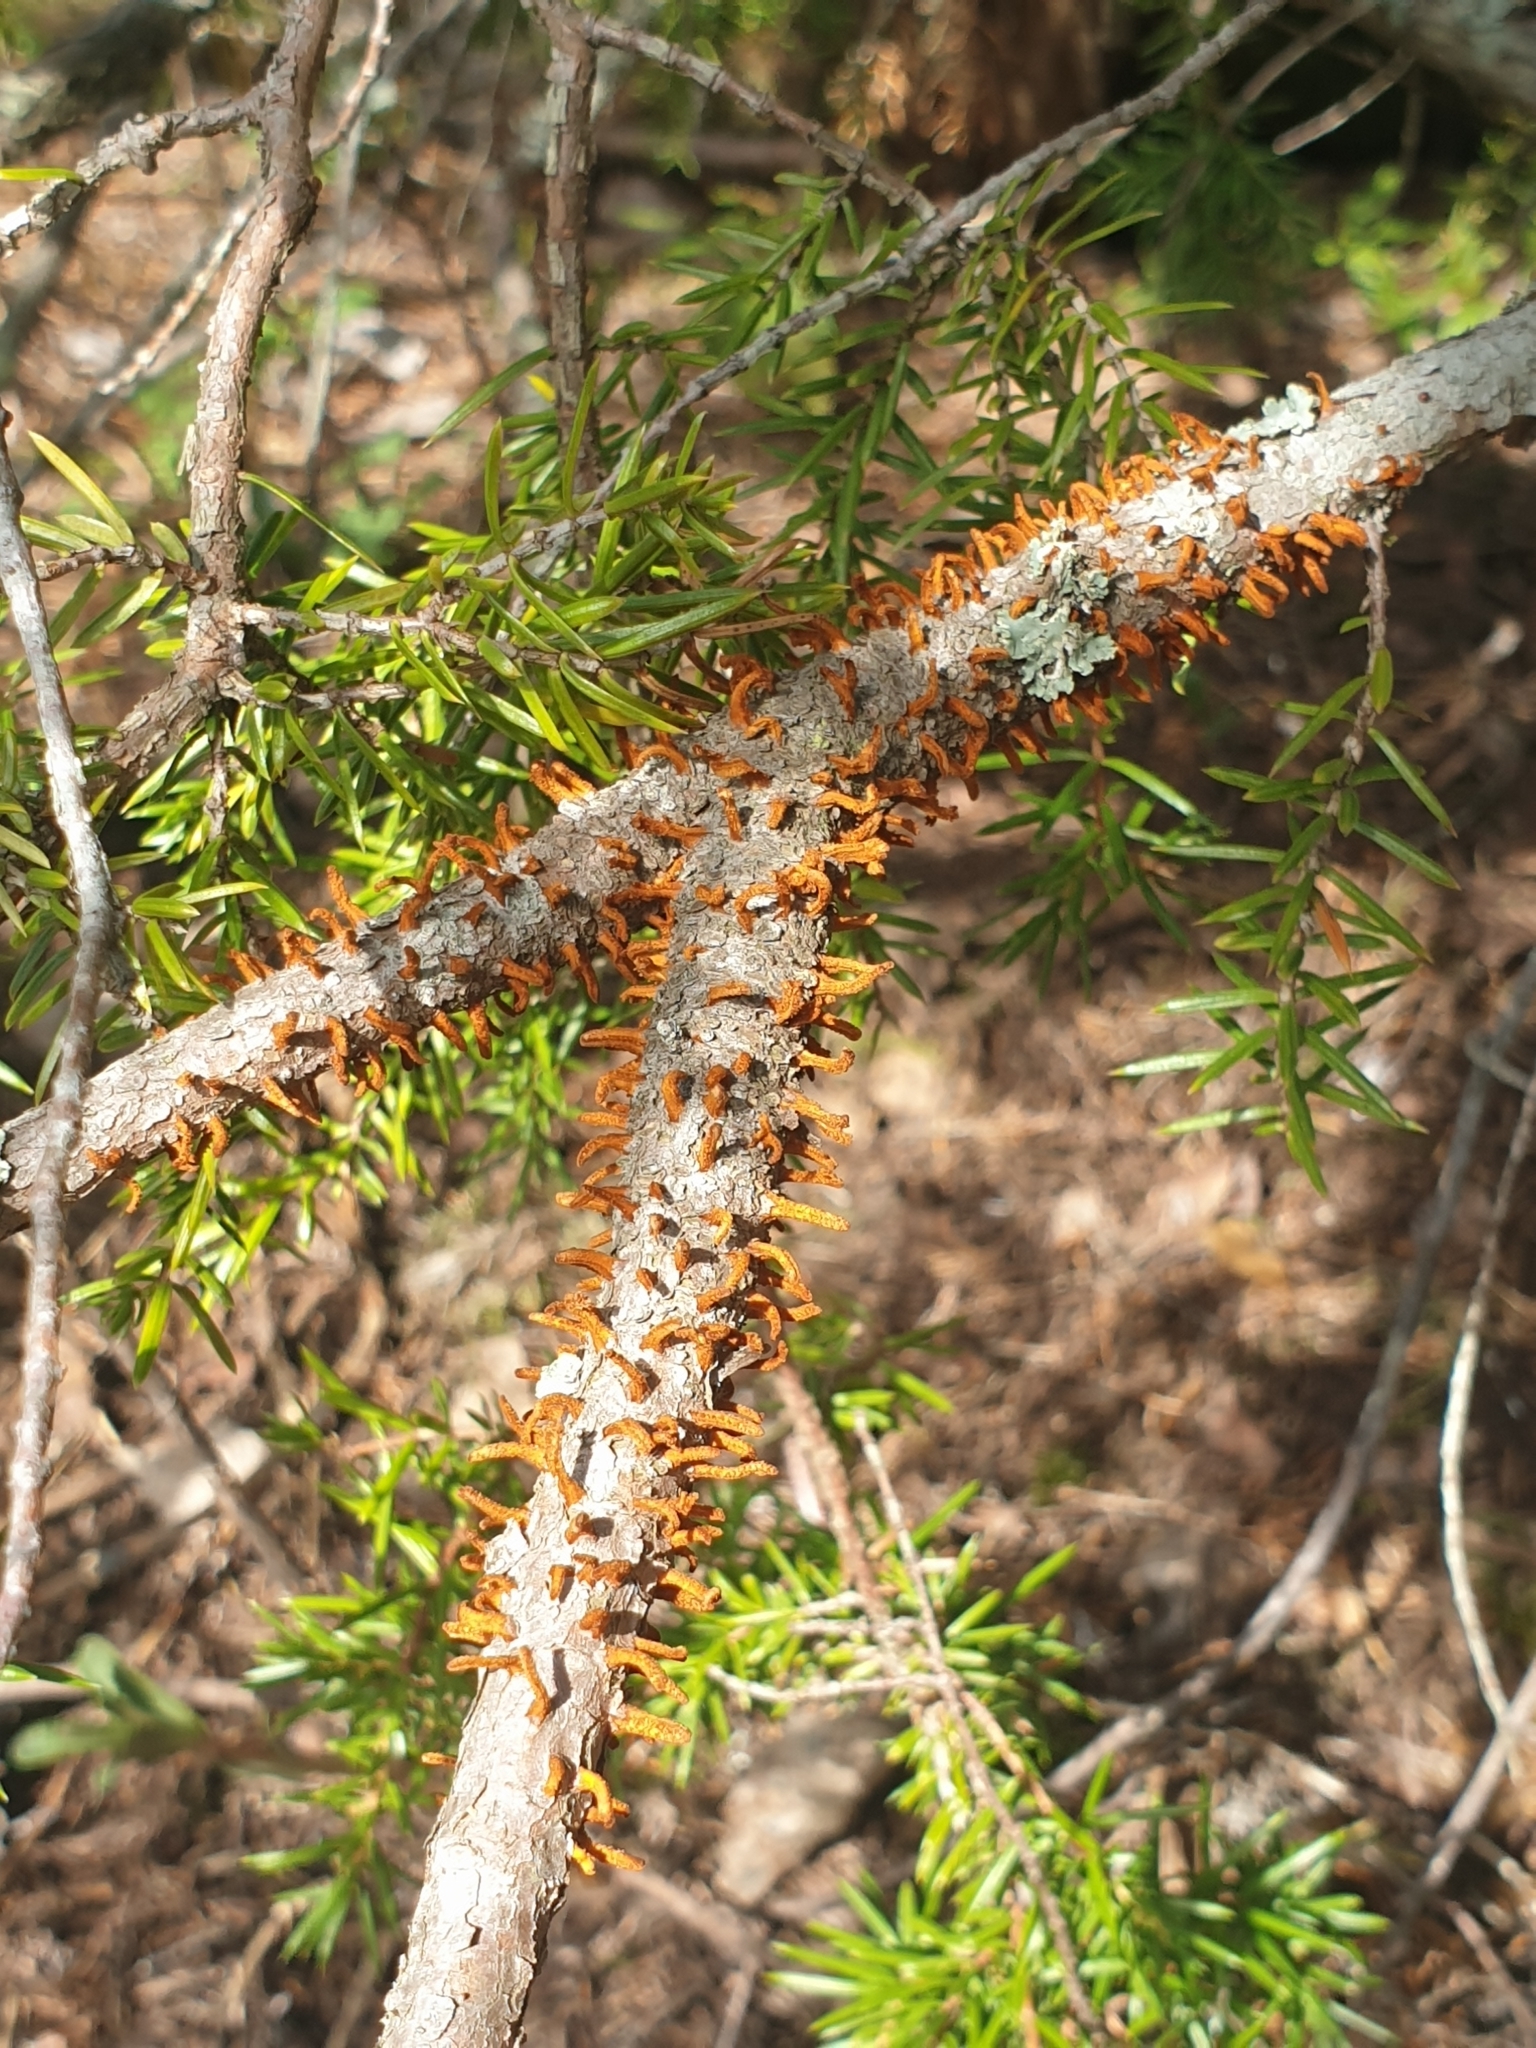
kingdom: Fungi
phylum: Basidiomycota
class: Pucciniomycetes
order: Pucciniales
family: Gymnosporangiaceae
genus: Gymnosporangium
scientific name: Gymnosporangium clavariiforme
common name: Tongues of fire
